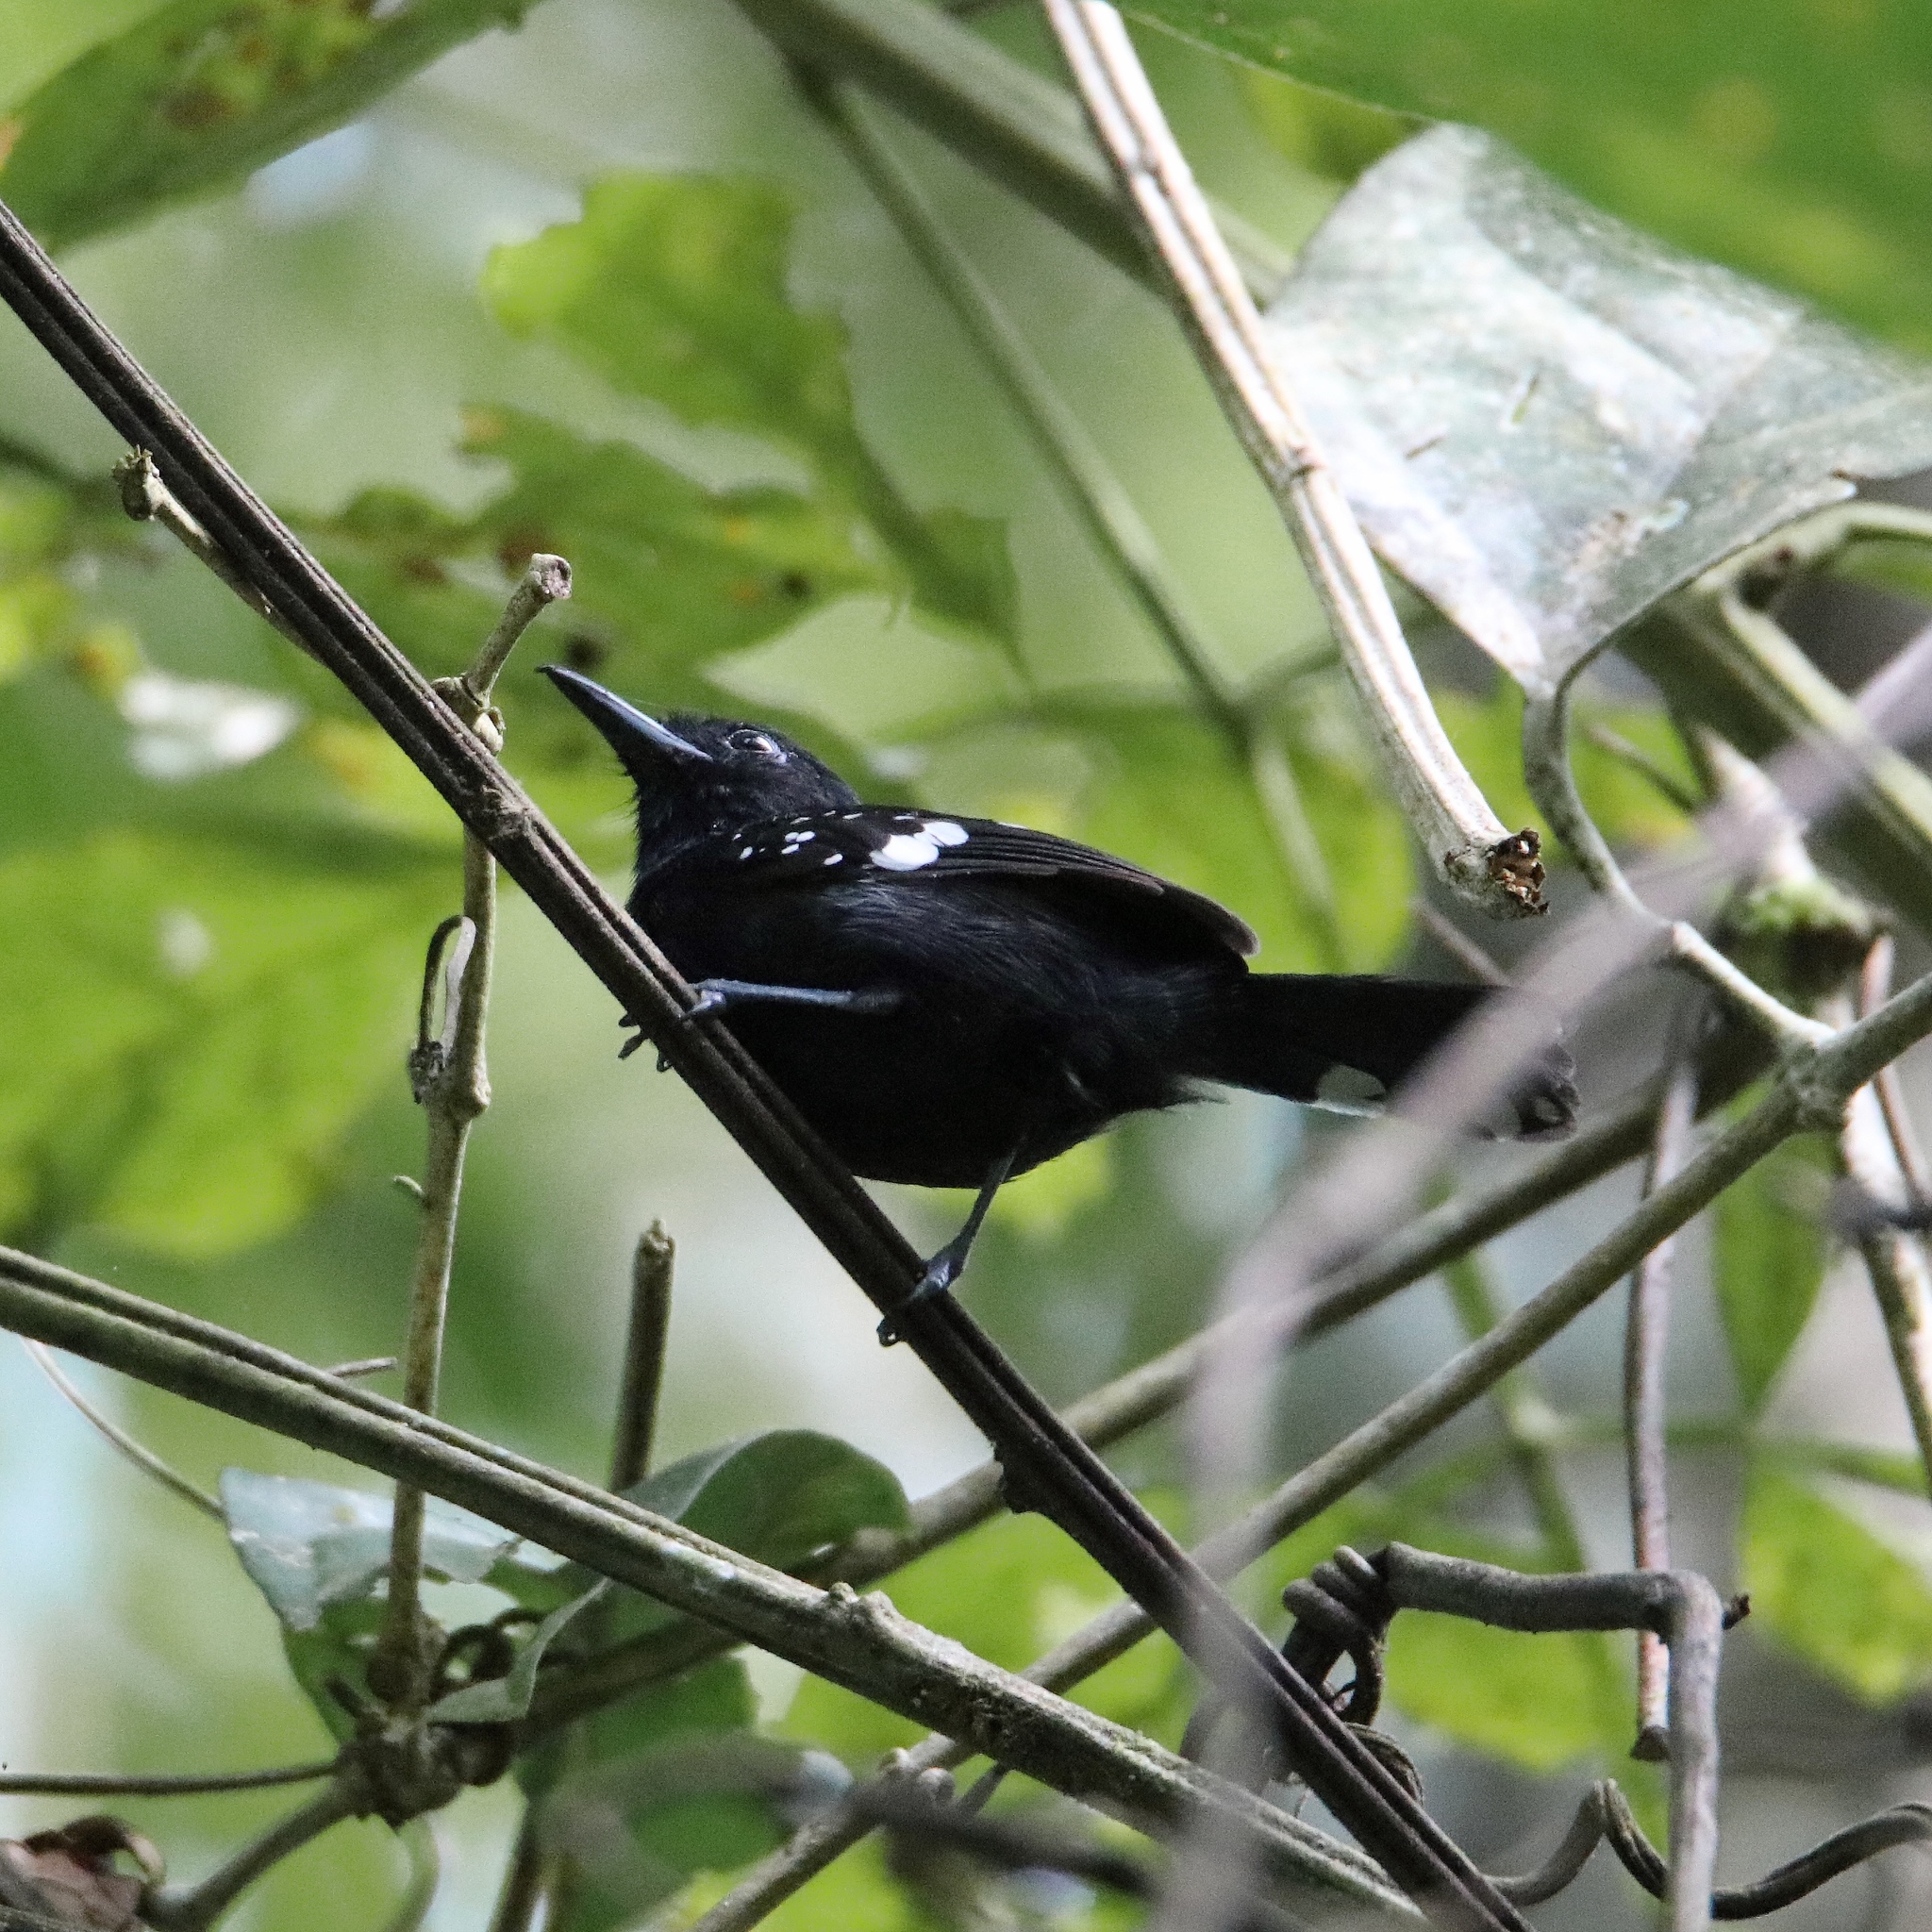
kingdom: Animalia
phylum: Chordata
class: Aves
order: Passeriformes
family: Thamnophilidae
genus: Microrhopias
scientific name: Microrhopias quixensis
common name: Dot-winged antwren
